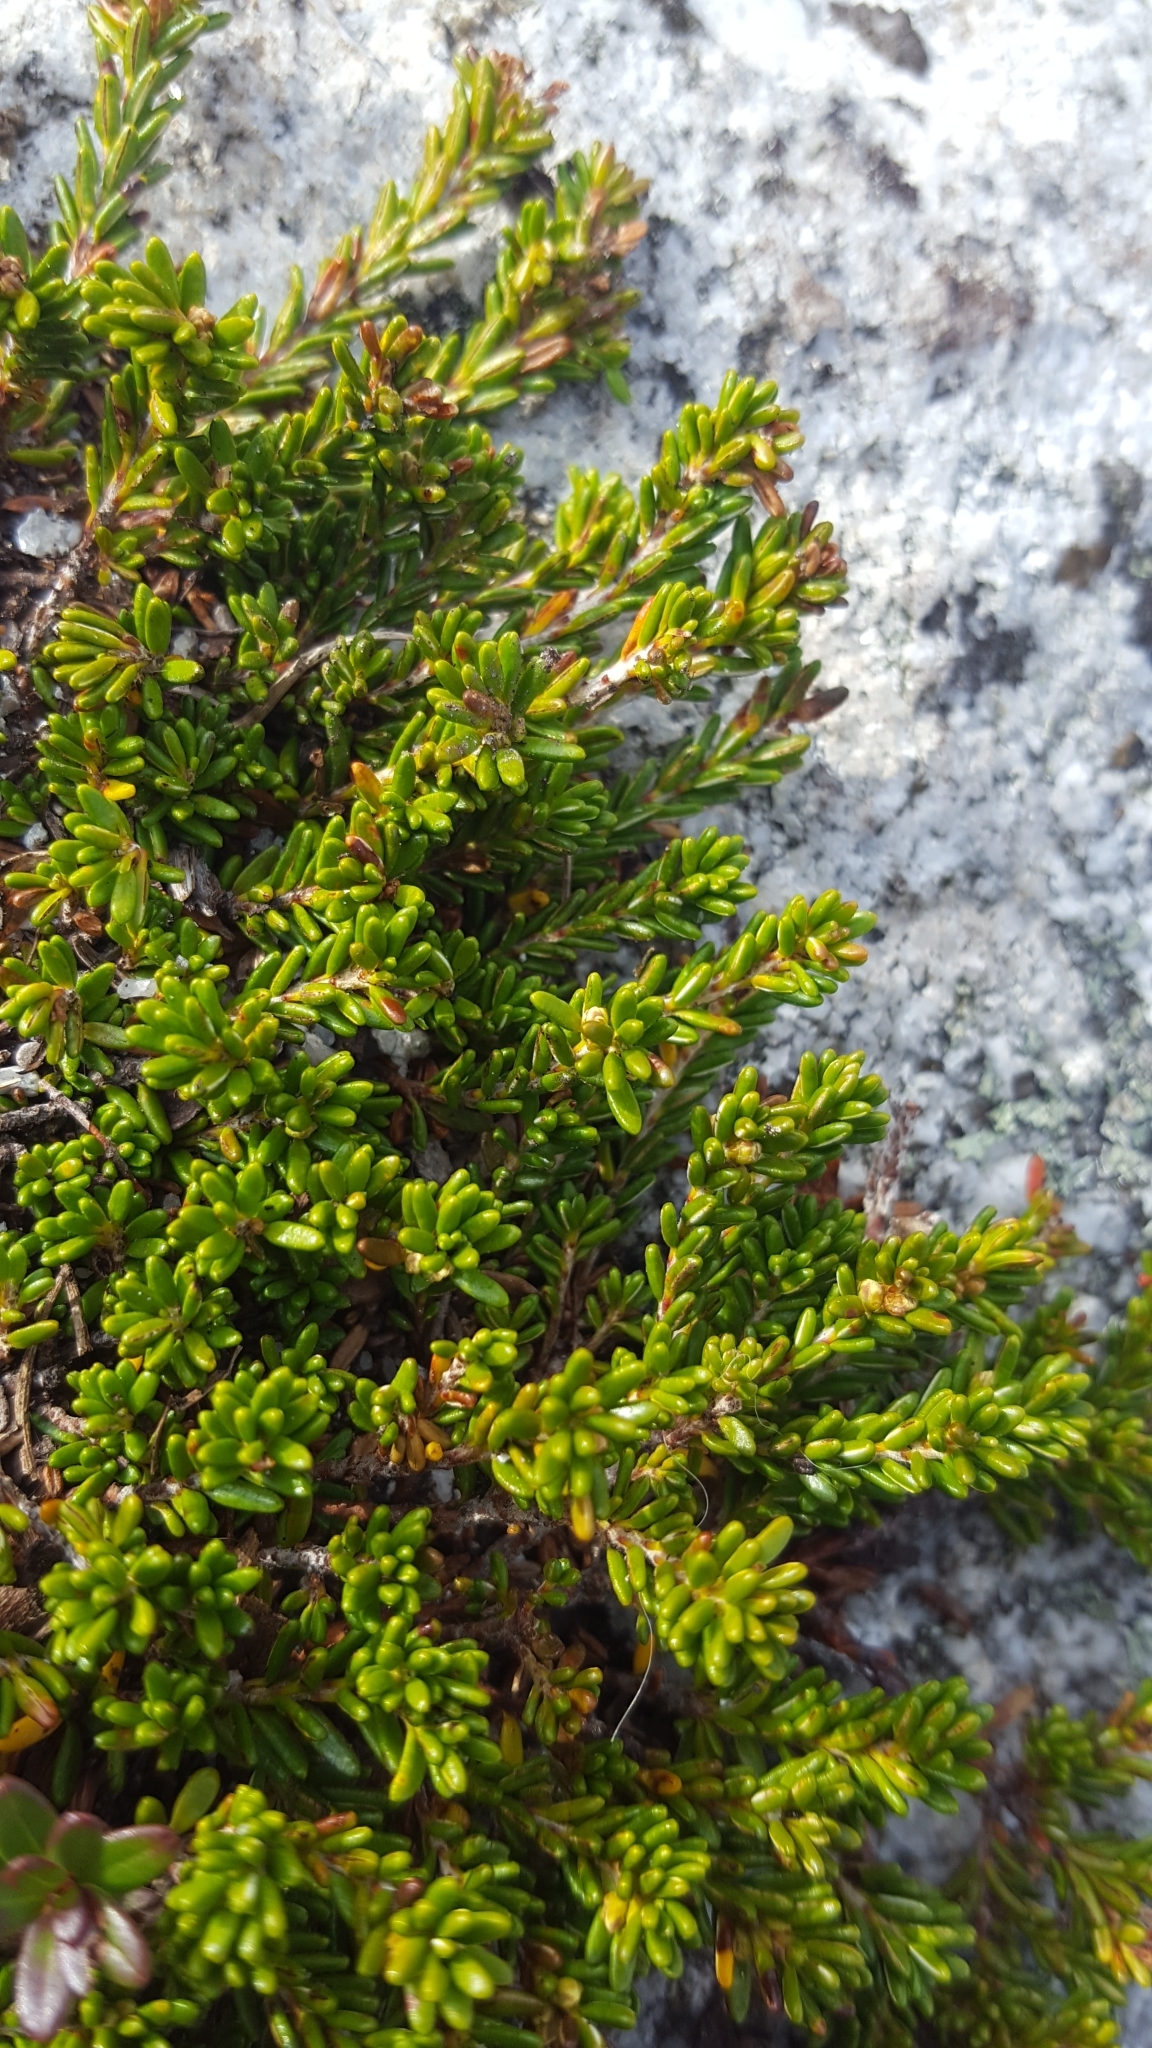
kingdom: Plantae
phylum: Tracheophyta
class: Magnoliopsida
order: Ericales
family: Ericaceae
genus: Empetrum
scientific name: Empetrum nigrum
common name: Black crowberry
